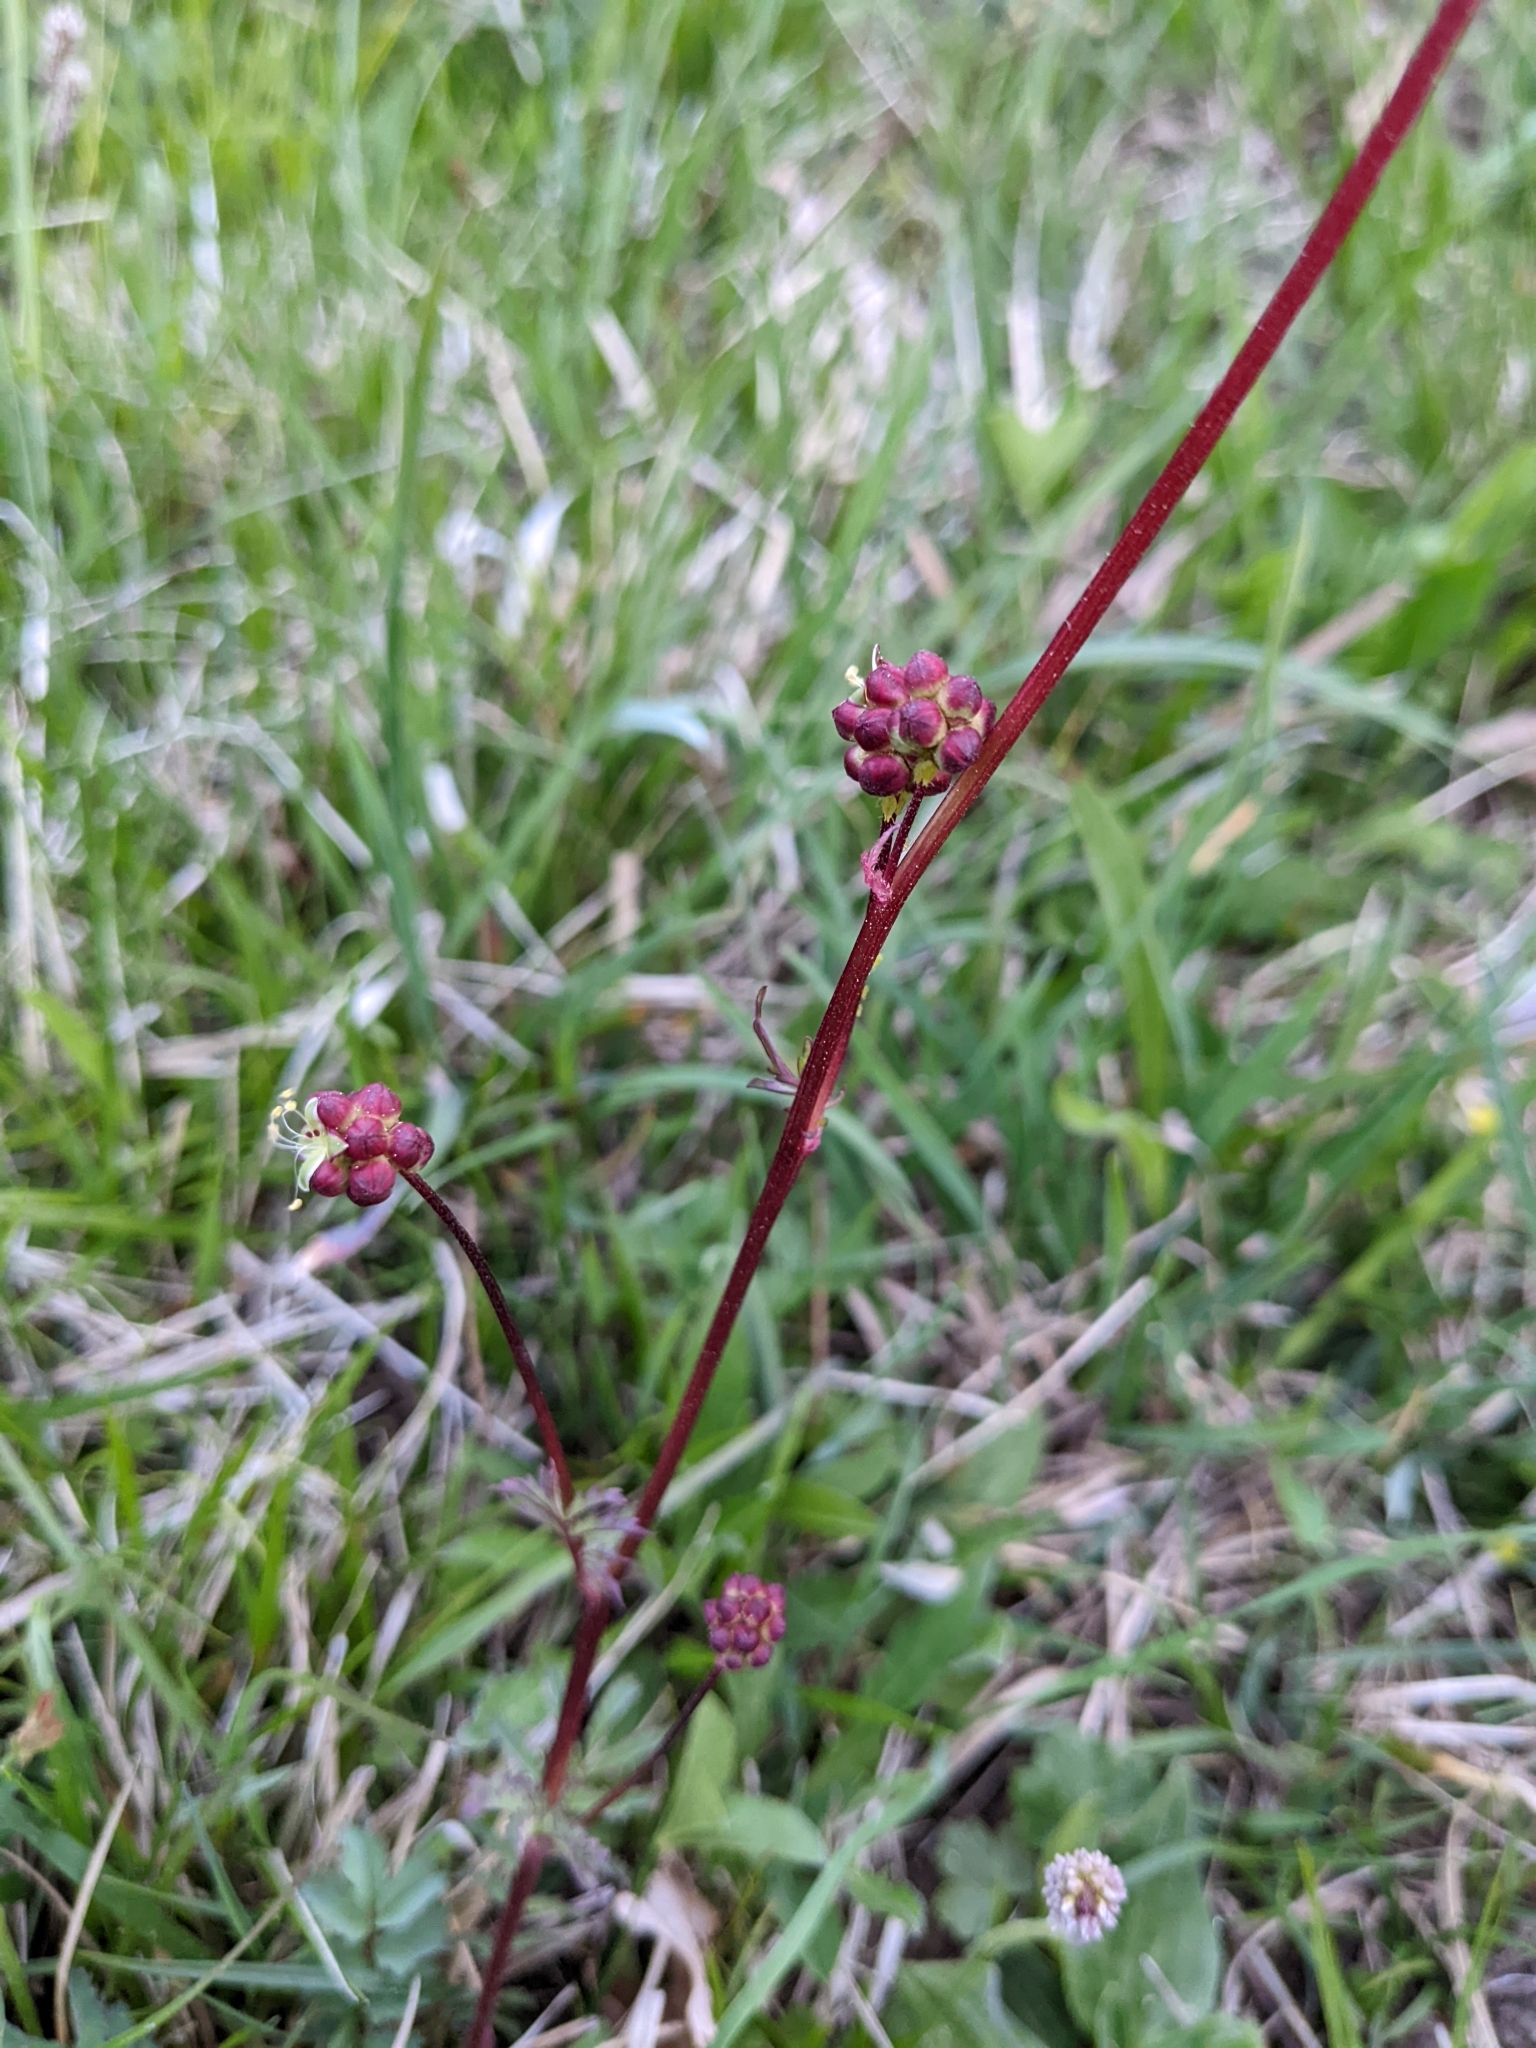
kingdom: Plantae
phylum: Tracheophyta
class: Magnoliopsida
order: Rosales
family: Rosaceae
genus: Poterium
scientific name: Poterium sanguisorba
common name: Salad burnet
